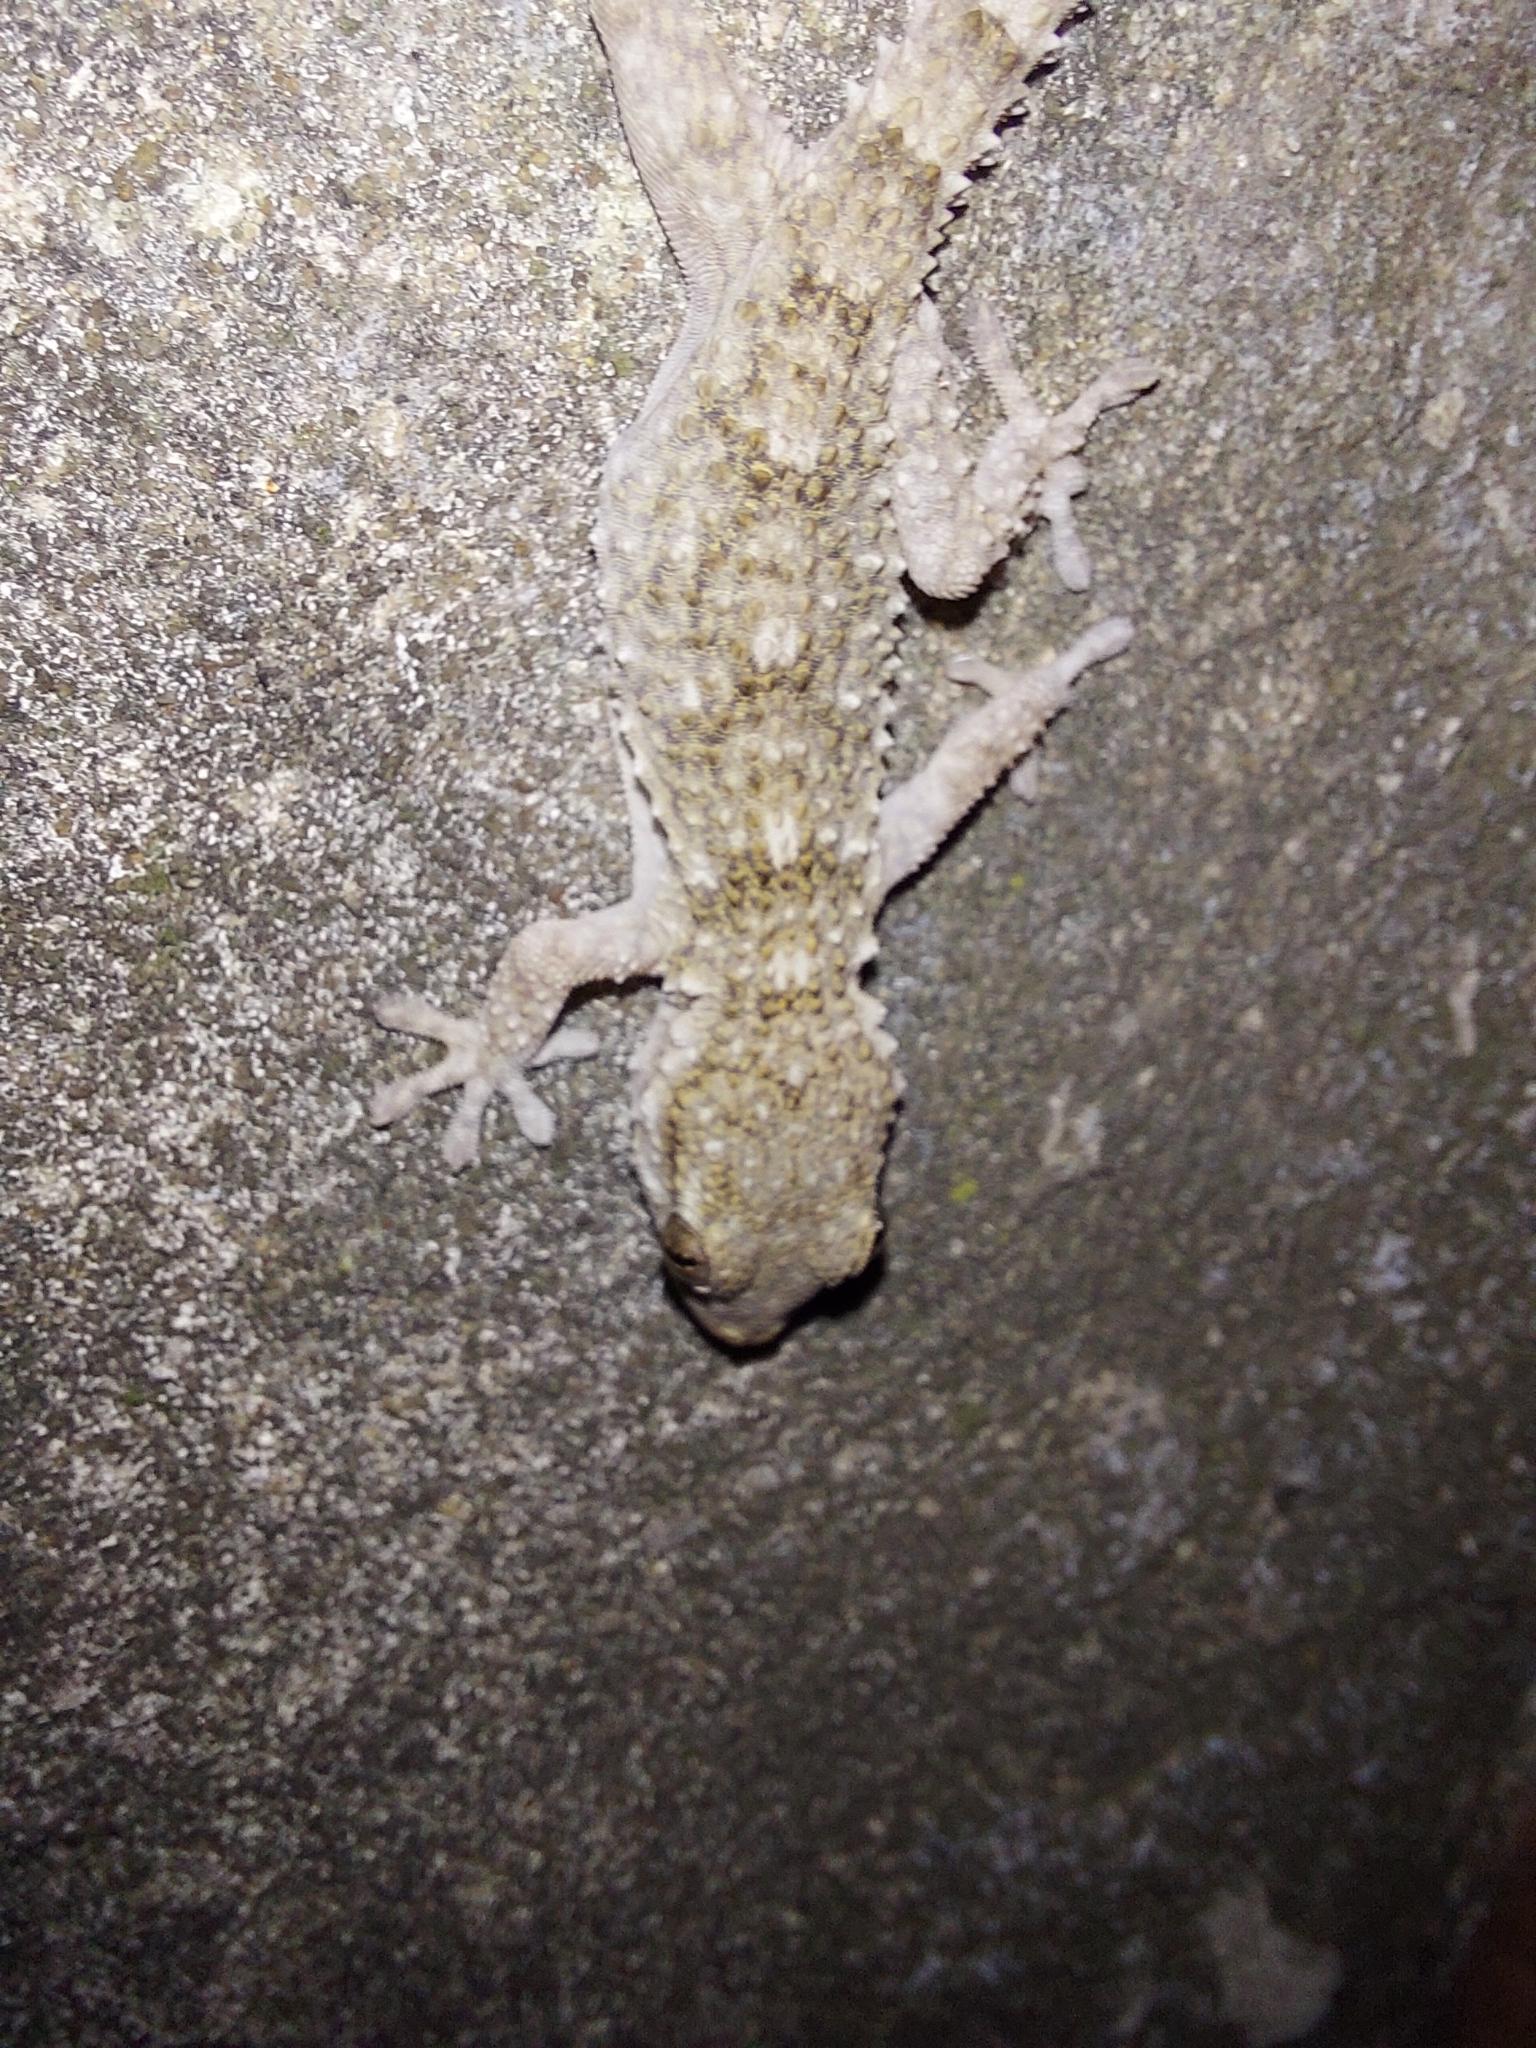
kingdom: Animalia
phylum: Chordata
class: Squamata
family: Phyllodactylidae
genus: Tarentola
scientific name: Tarentola mauritanica
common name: Moorish gecko
